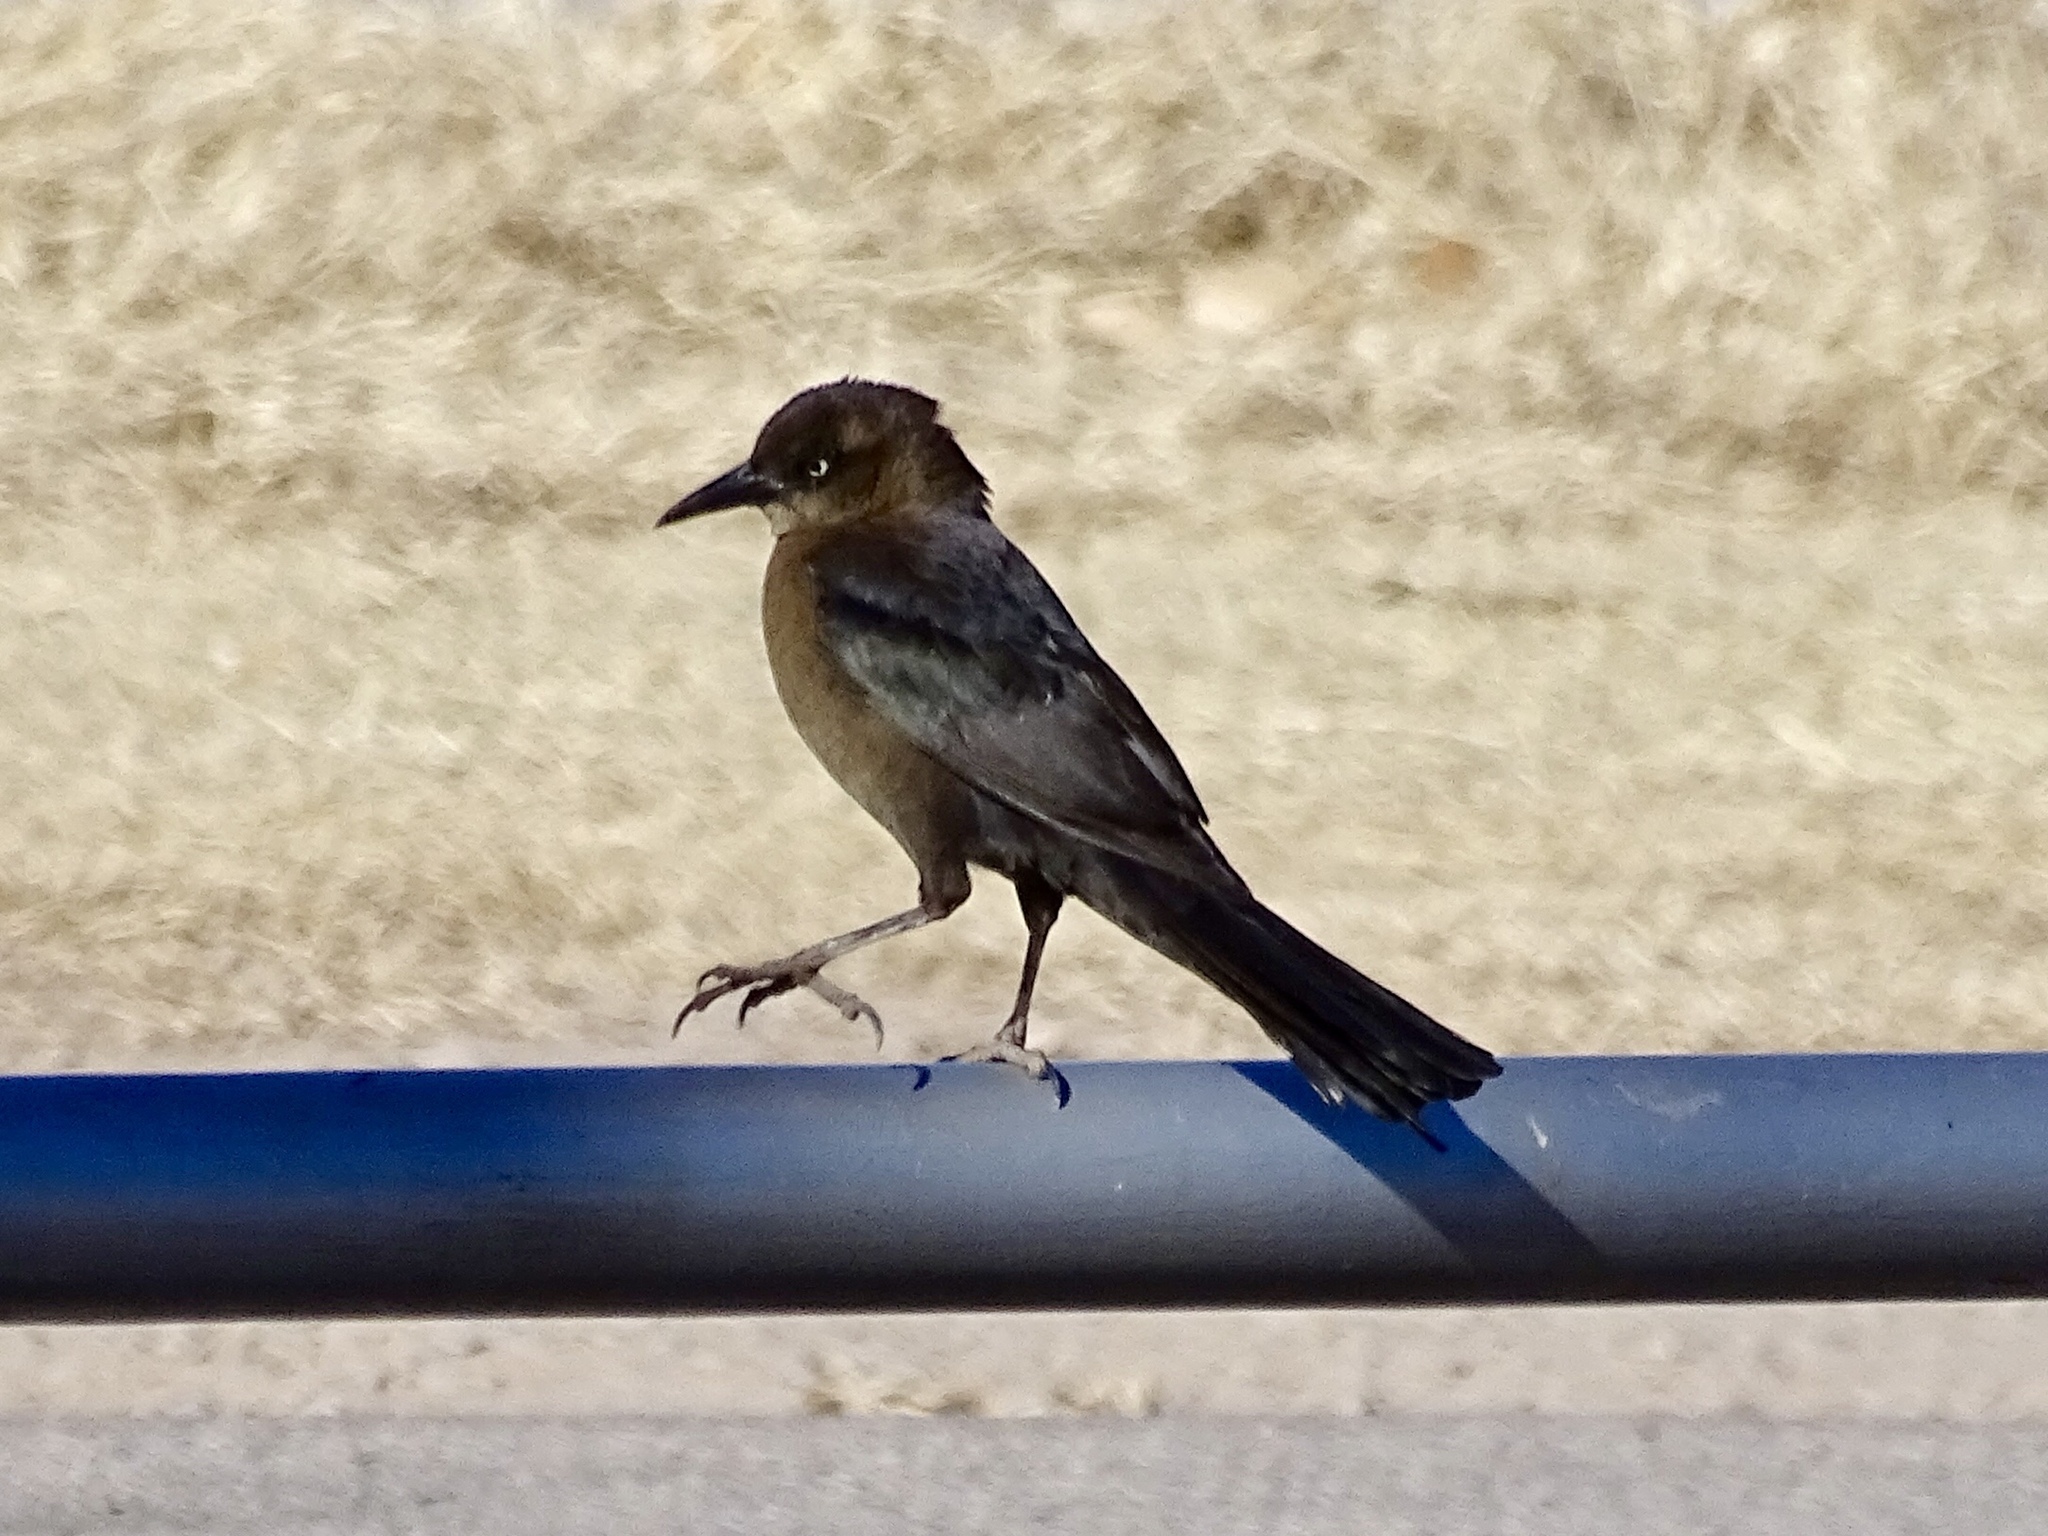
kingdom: Animalia
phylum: Chordata
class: Aves
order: Passeriformes
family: Icteridae
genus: Quiscalus
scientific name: Quiscalus mexicanus
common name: Great-tailed grackle
